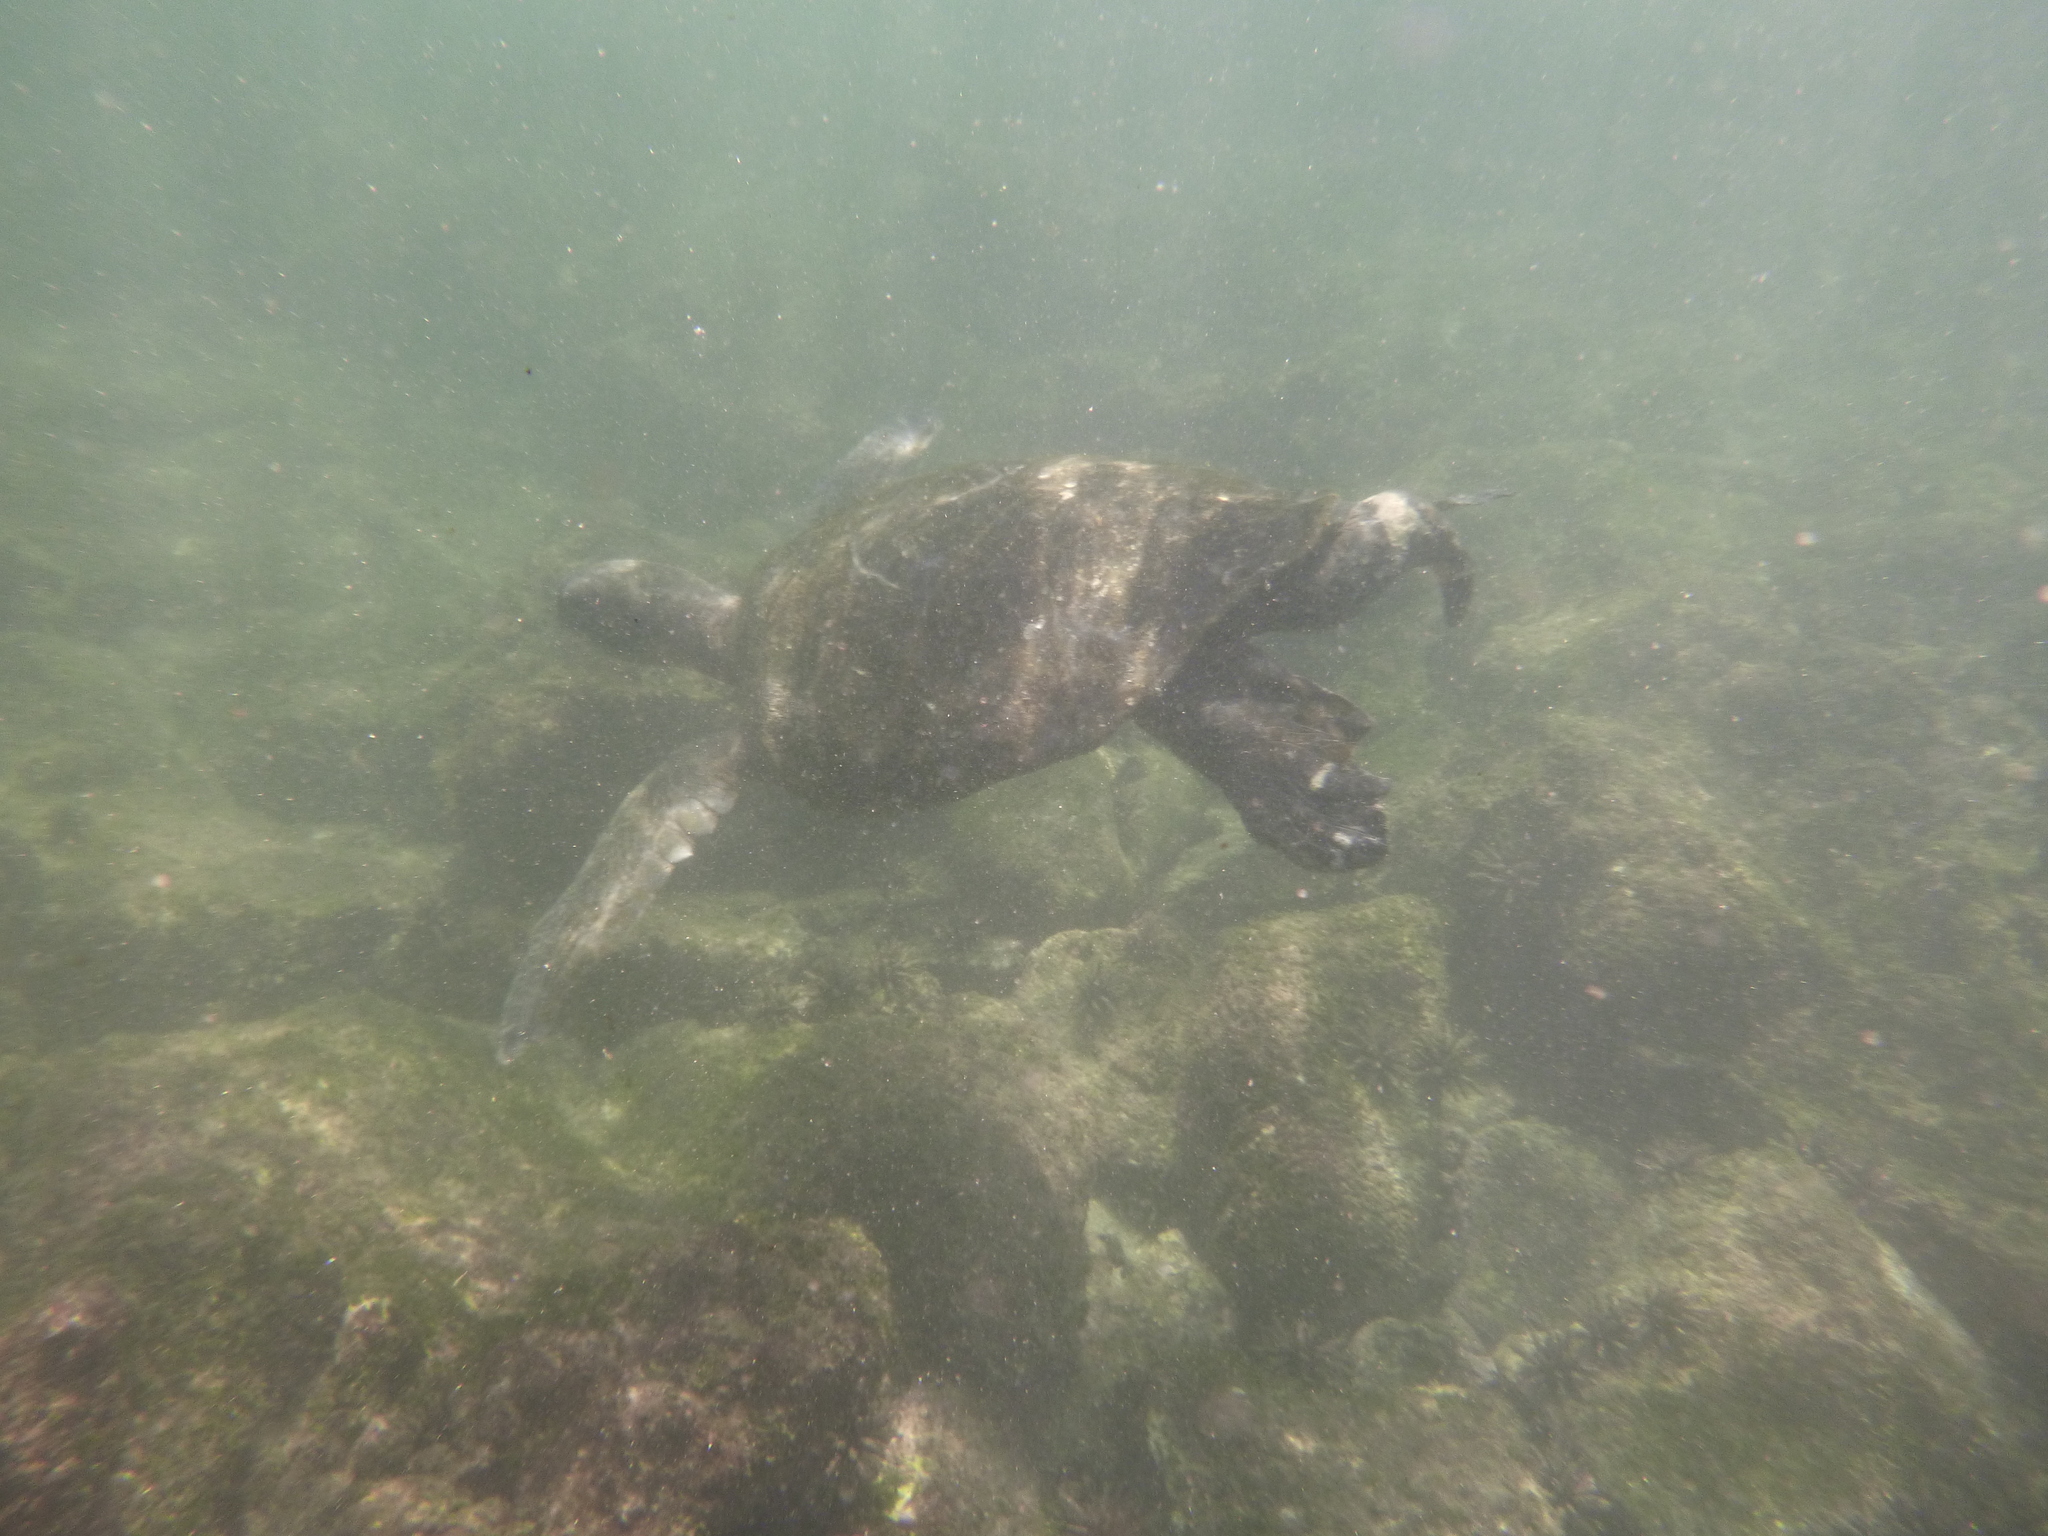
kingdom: Animalia
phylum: Chordata
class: Testudines
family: Cheloniidae
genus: Chelonia
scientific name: Chelonia mydas
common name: Green turtle
